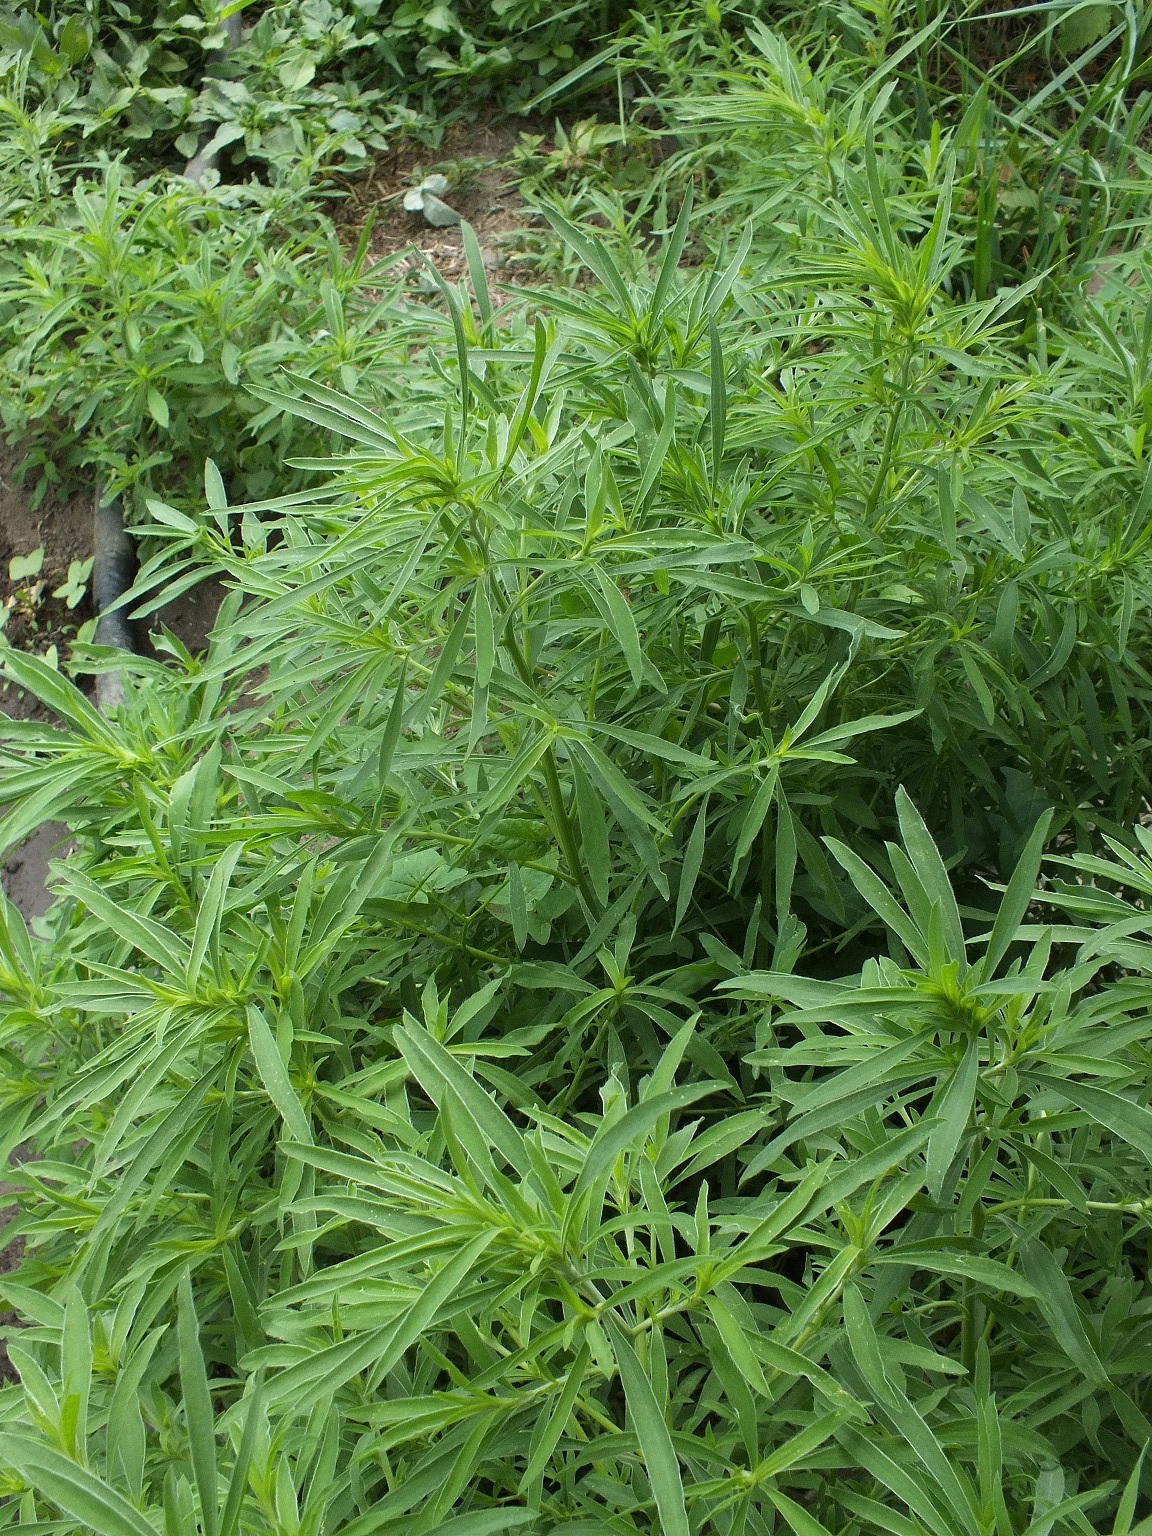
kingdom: Plantae
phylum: Tracheophyta
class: Magnoliopsida
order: Caryophyllales
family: Amaranthaceae
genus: Bassia
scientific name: Bassia scoparia
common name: Belvedere
